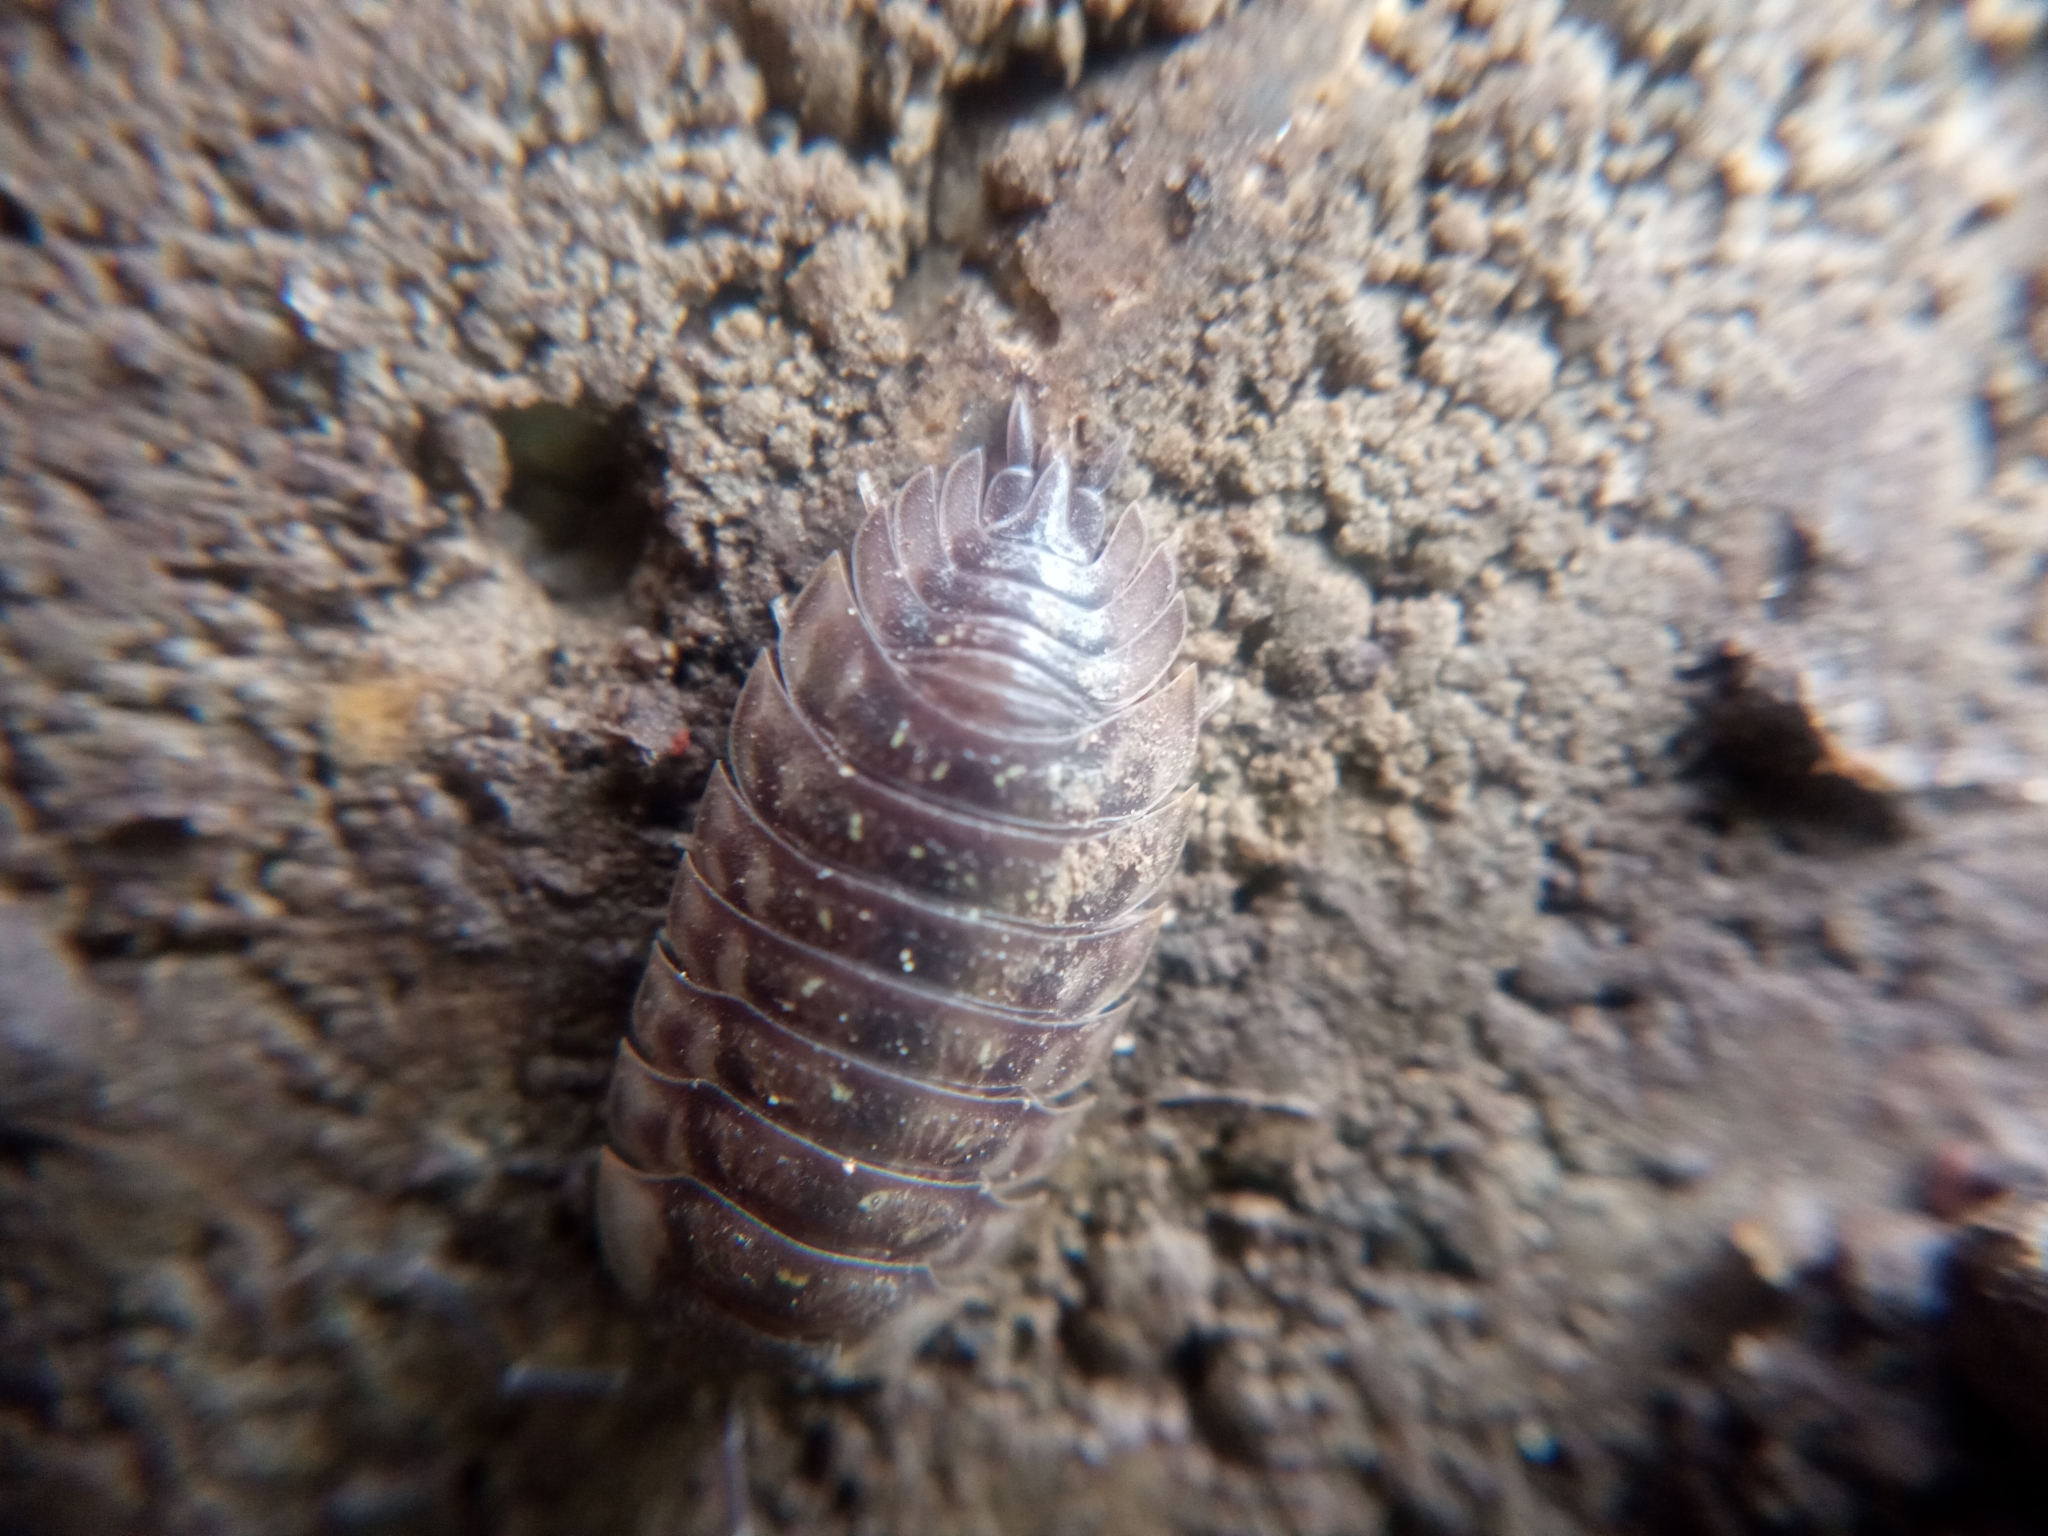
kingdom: Animalia
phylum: Arthropoda
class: Malacostraca
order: Isopoda
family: Oniscidae
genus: Oniscus
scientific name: Oniscus asellus
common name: Common shiny woodlouse
